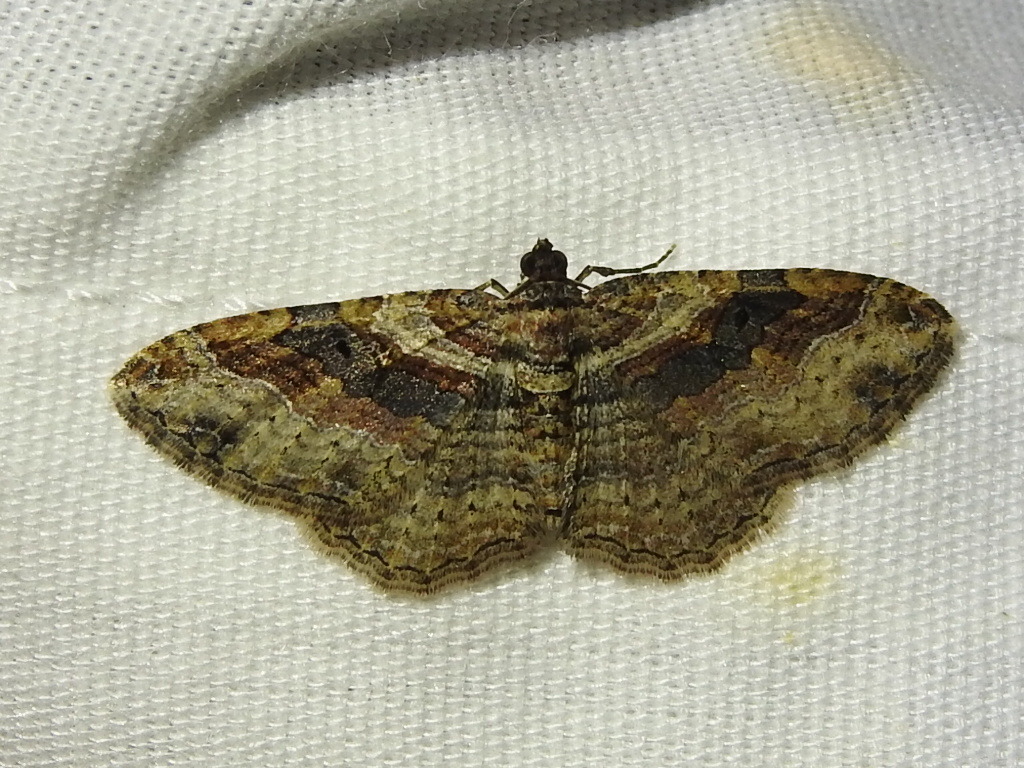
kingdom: Animalia
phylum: Arthropoda
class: Insecta
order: Lepidoptera
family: Geometridae
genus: Costaconvexa
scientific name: Costaconvexa centrostrigaria
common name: Bent-line carpet
